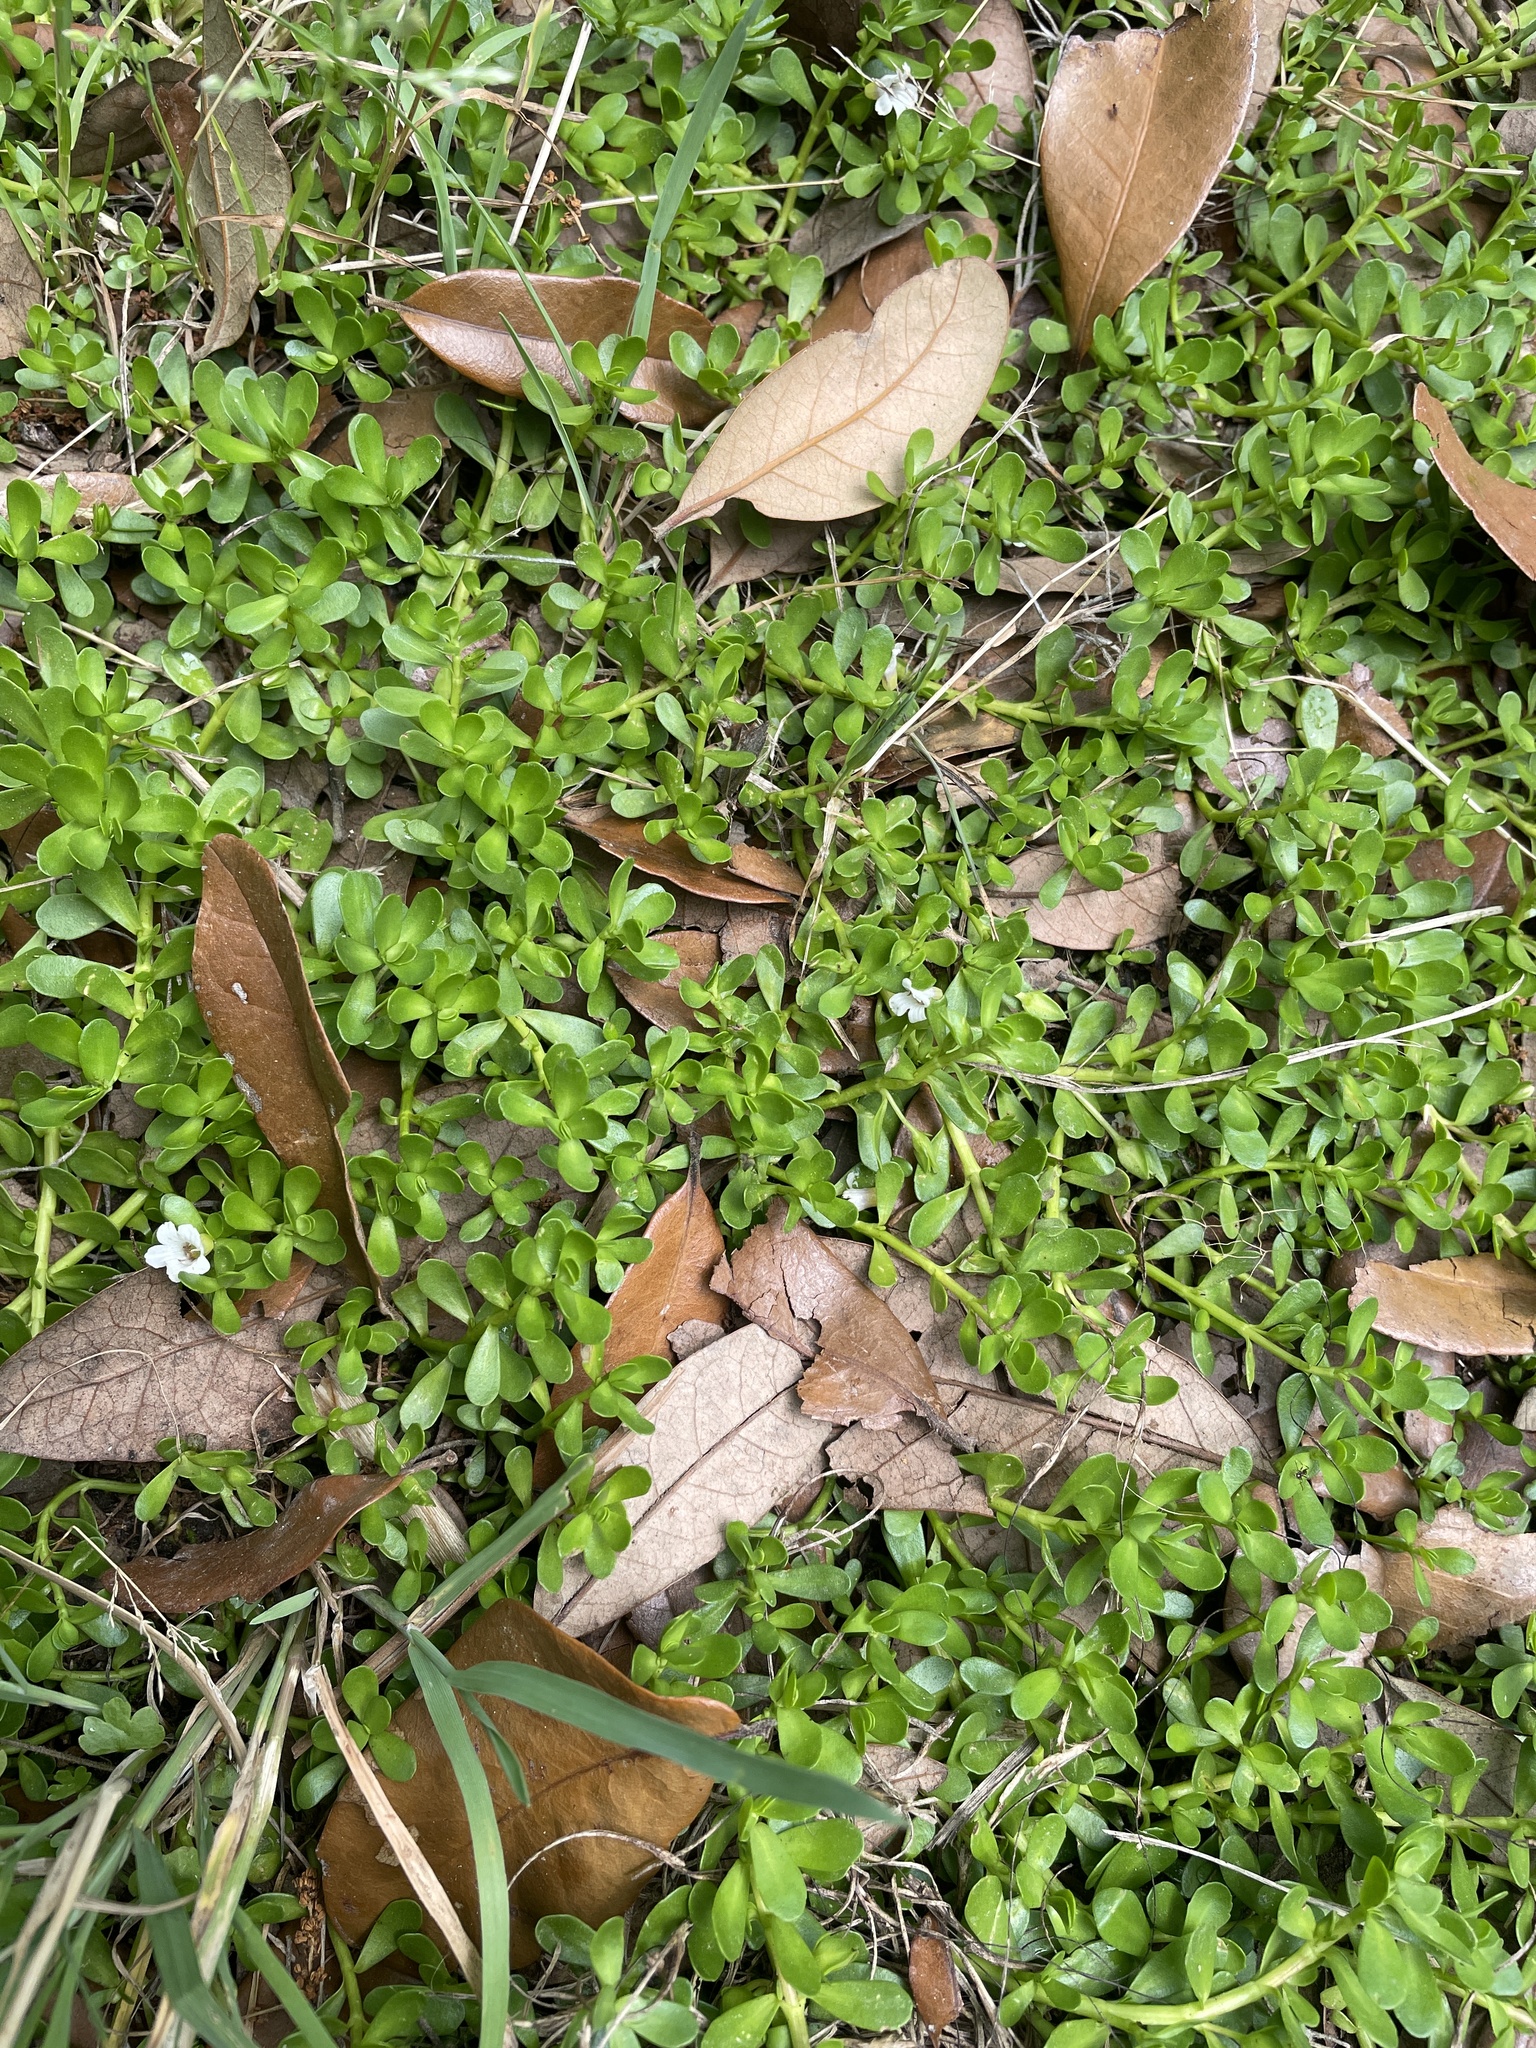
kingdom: Plantae
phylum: Tracheophyta
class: Magnoliopsida
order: Lamiales
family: Plantaginaceae
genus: Bacopa
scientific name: Bacopa monnieri
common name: Indian-pennywort
